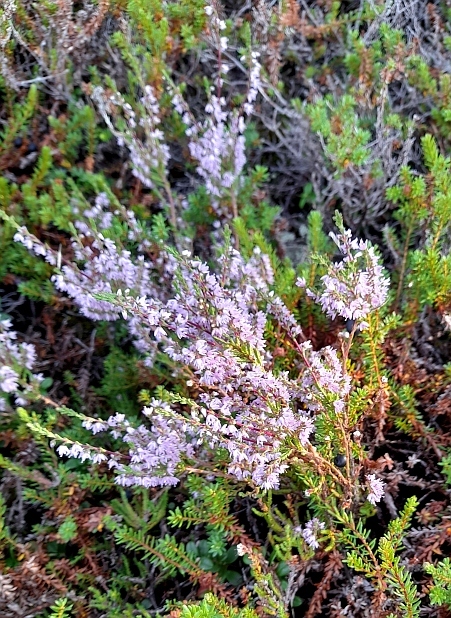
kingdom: Plantae
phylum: Tracheophyta
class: Magnoliopsida
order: Ericales
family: Ericaceae
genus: Calluna
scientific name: Calluna vulgaris
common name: Heather
